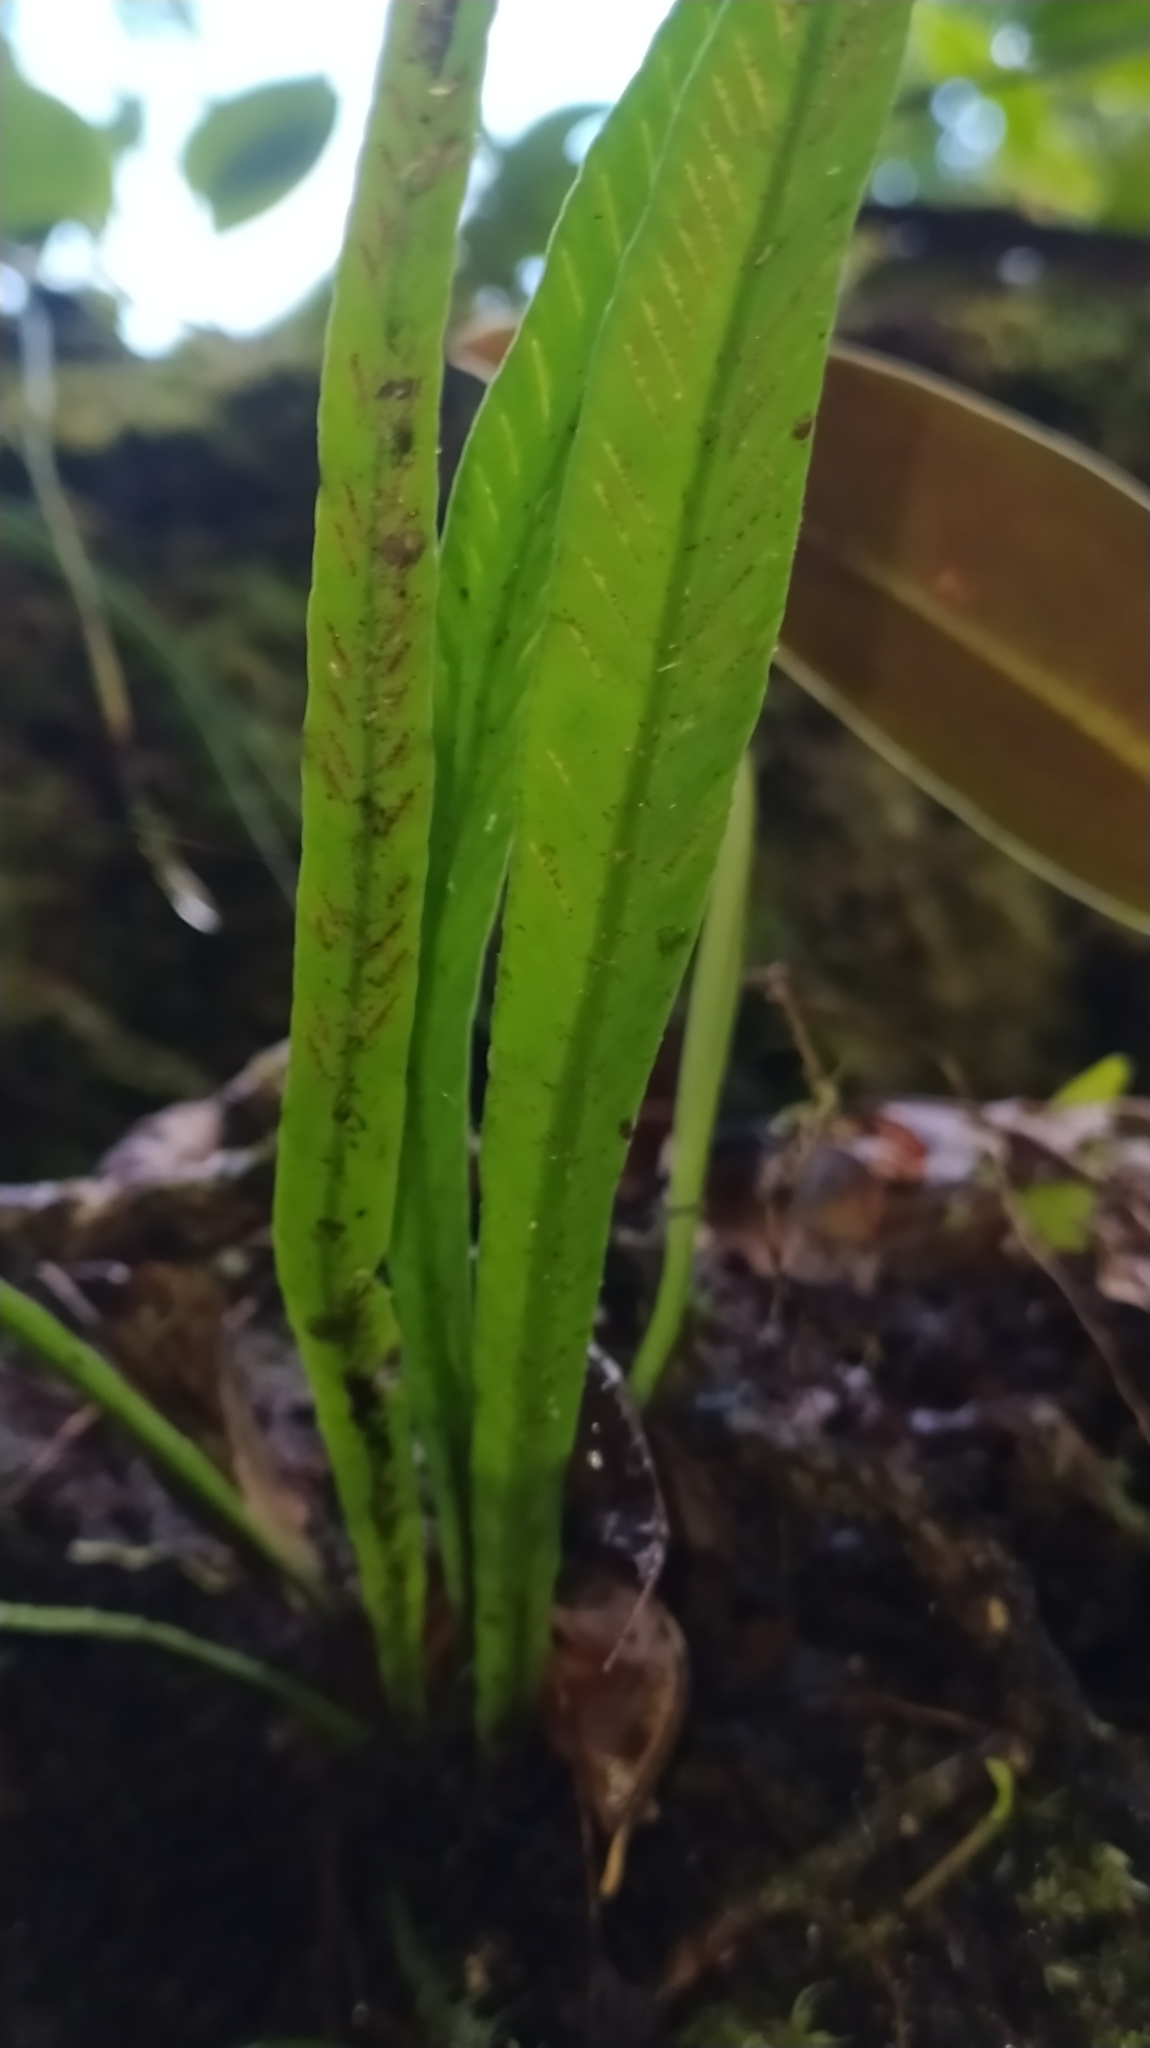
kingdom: Plantae
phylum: Tracheophyta
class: Polypodiopsida
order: Polypodiales
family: Aspleniaceae
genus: Asplenium
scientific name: Asplenium angustum
